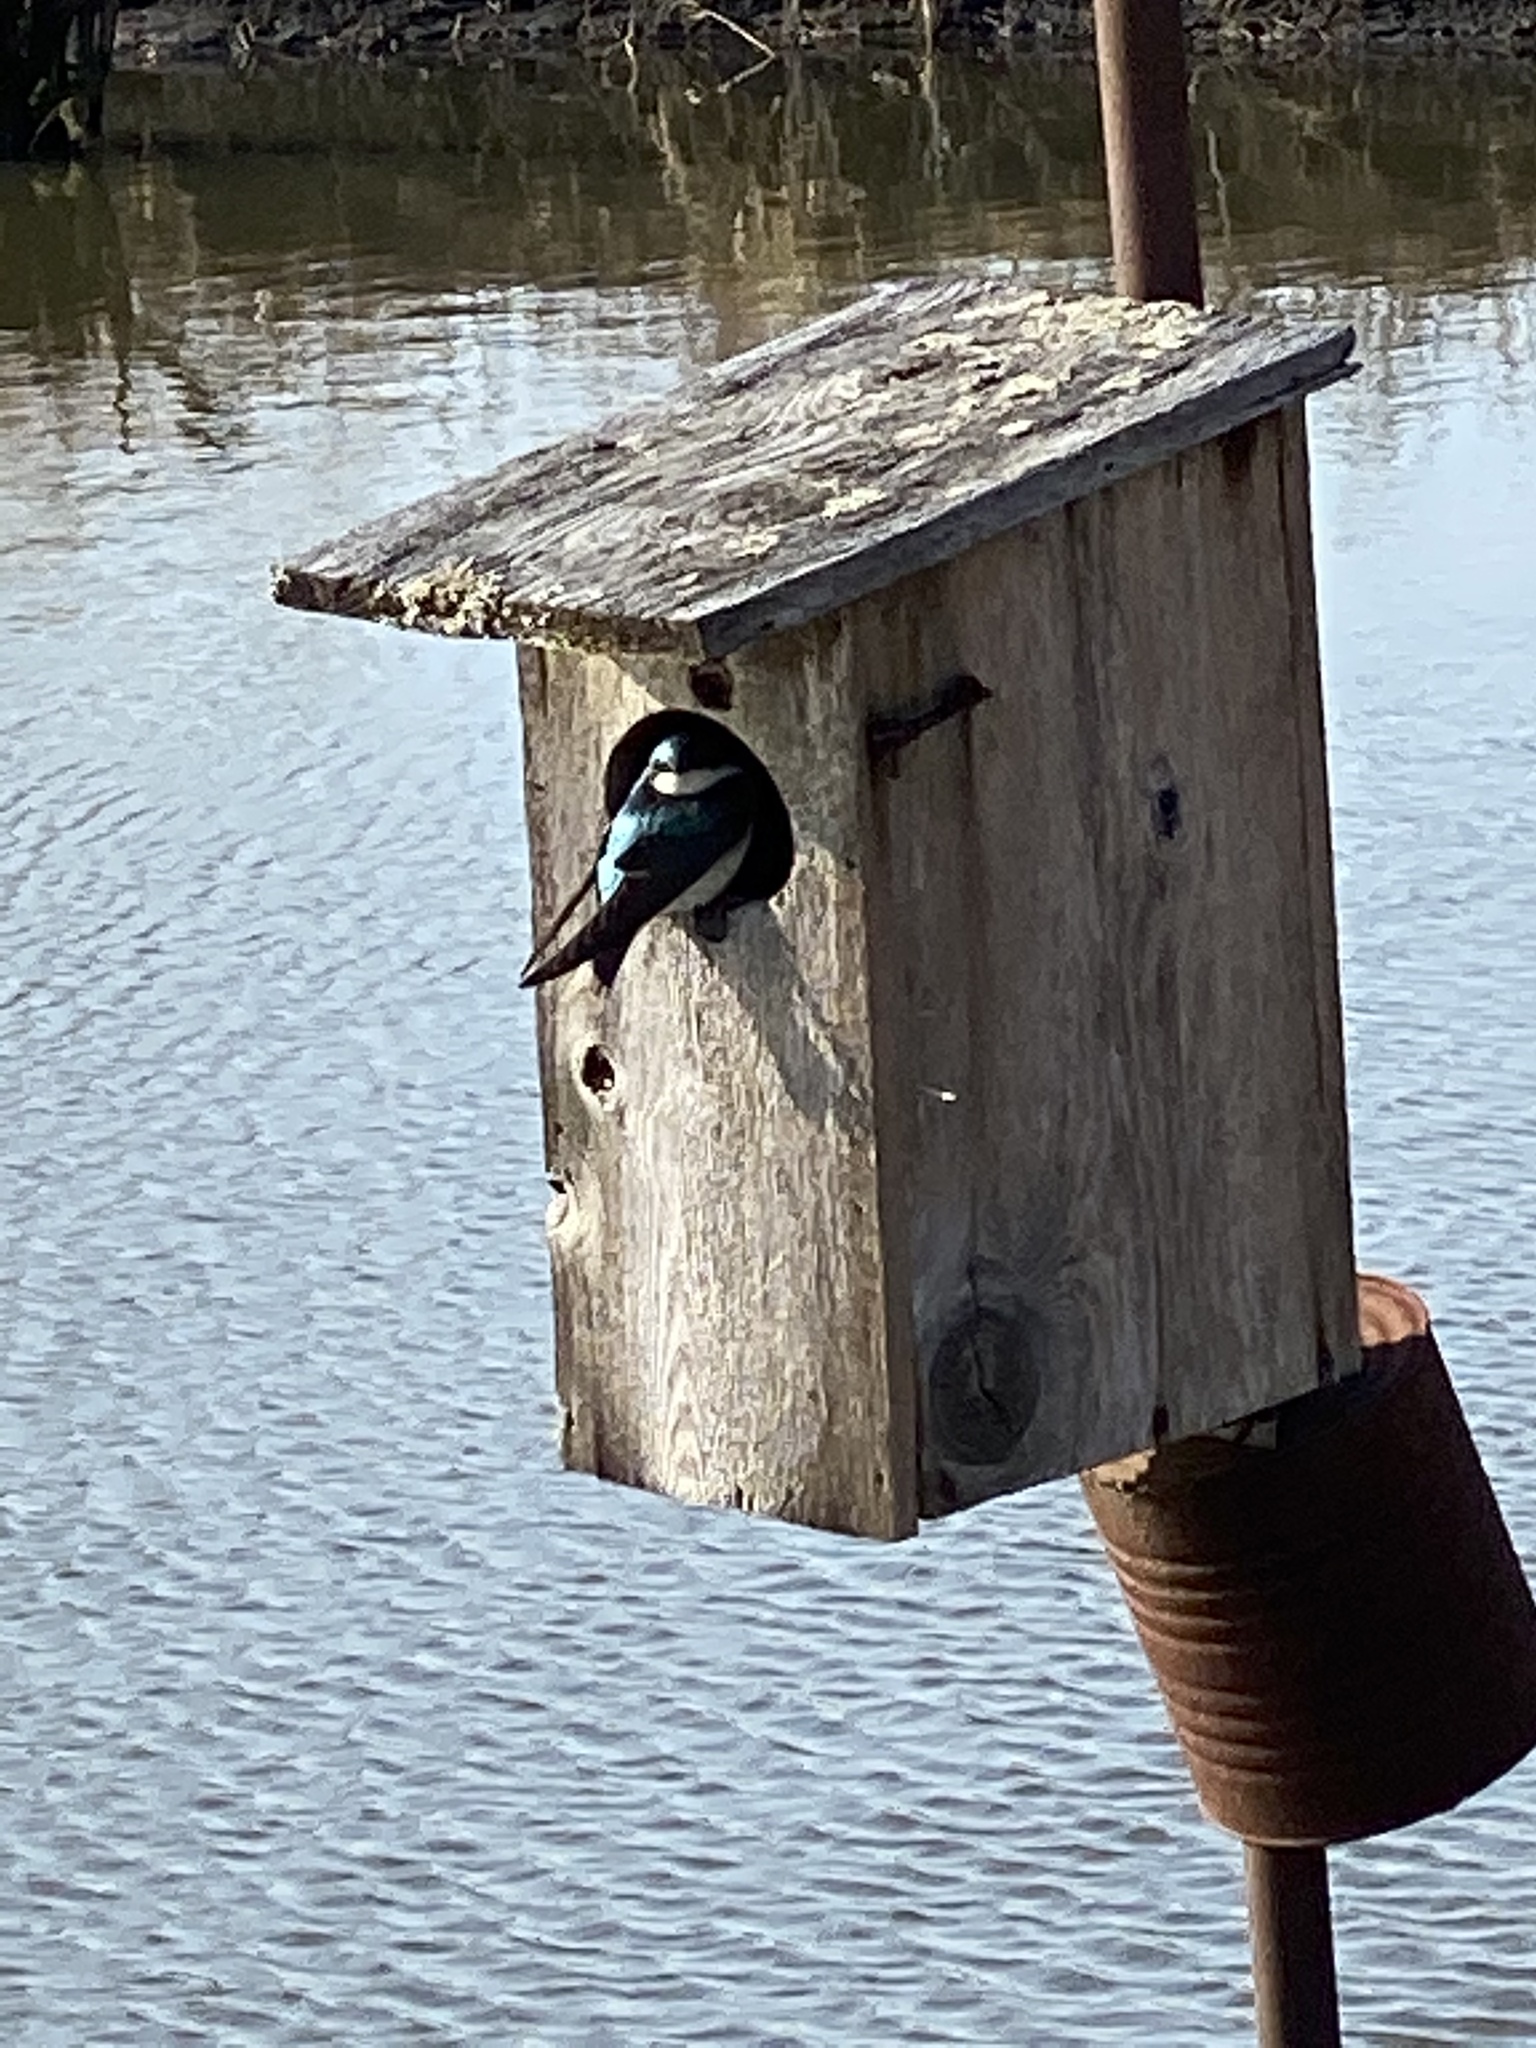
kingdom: Animalia
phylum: Chordata
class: Aves
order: Passeriformes
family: Hirundinidae
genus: Tachycineta
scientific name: Tachycineta bicolor
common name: Tree swallow
